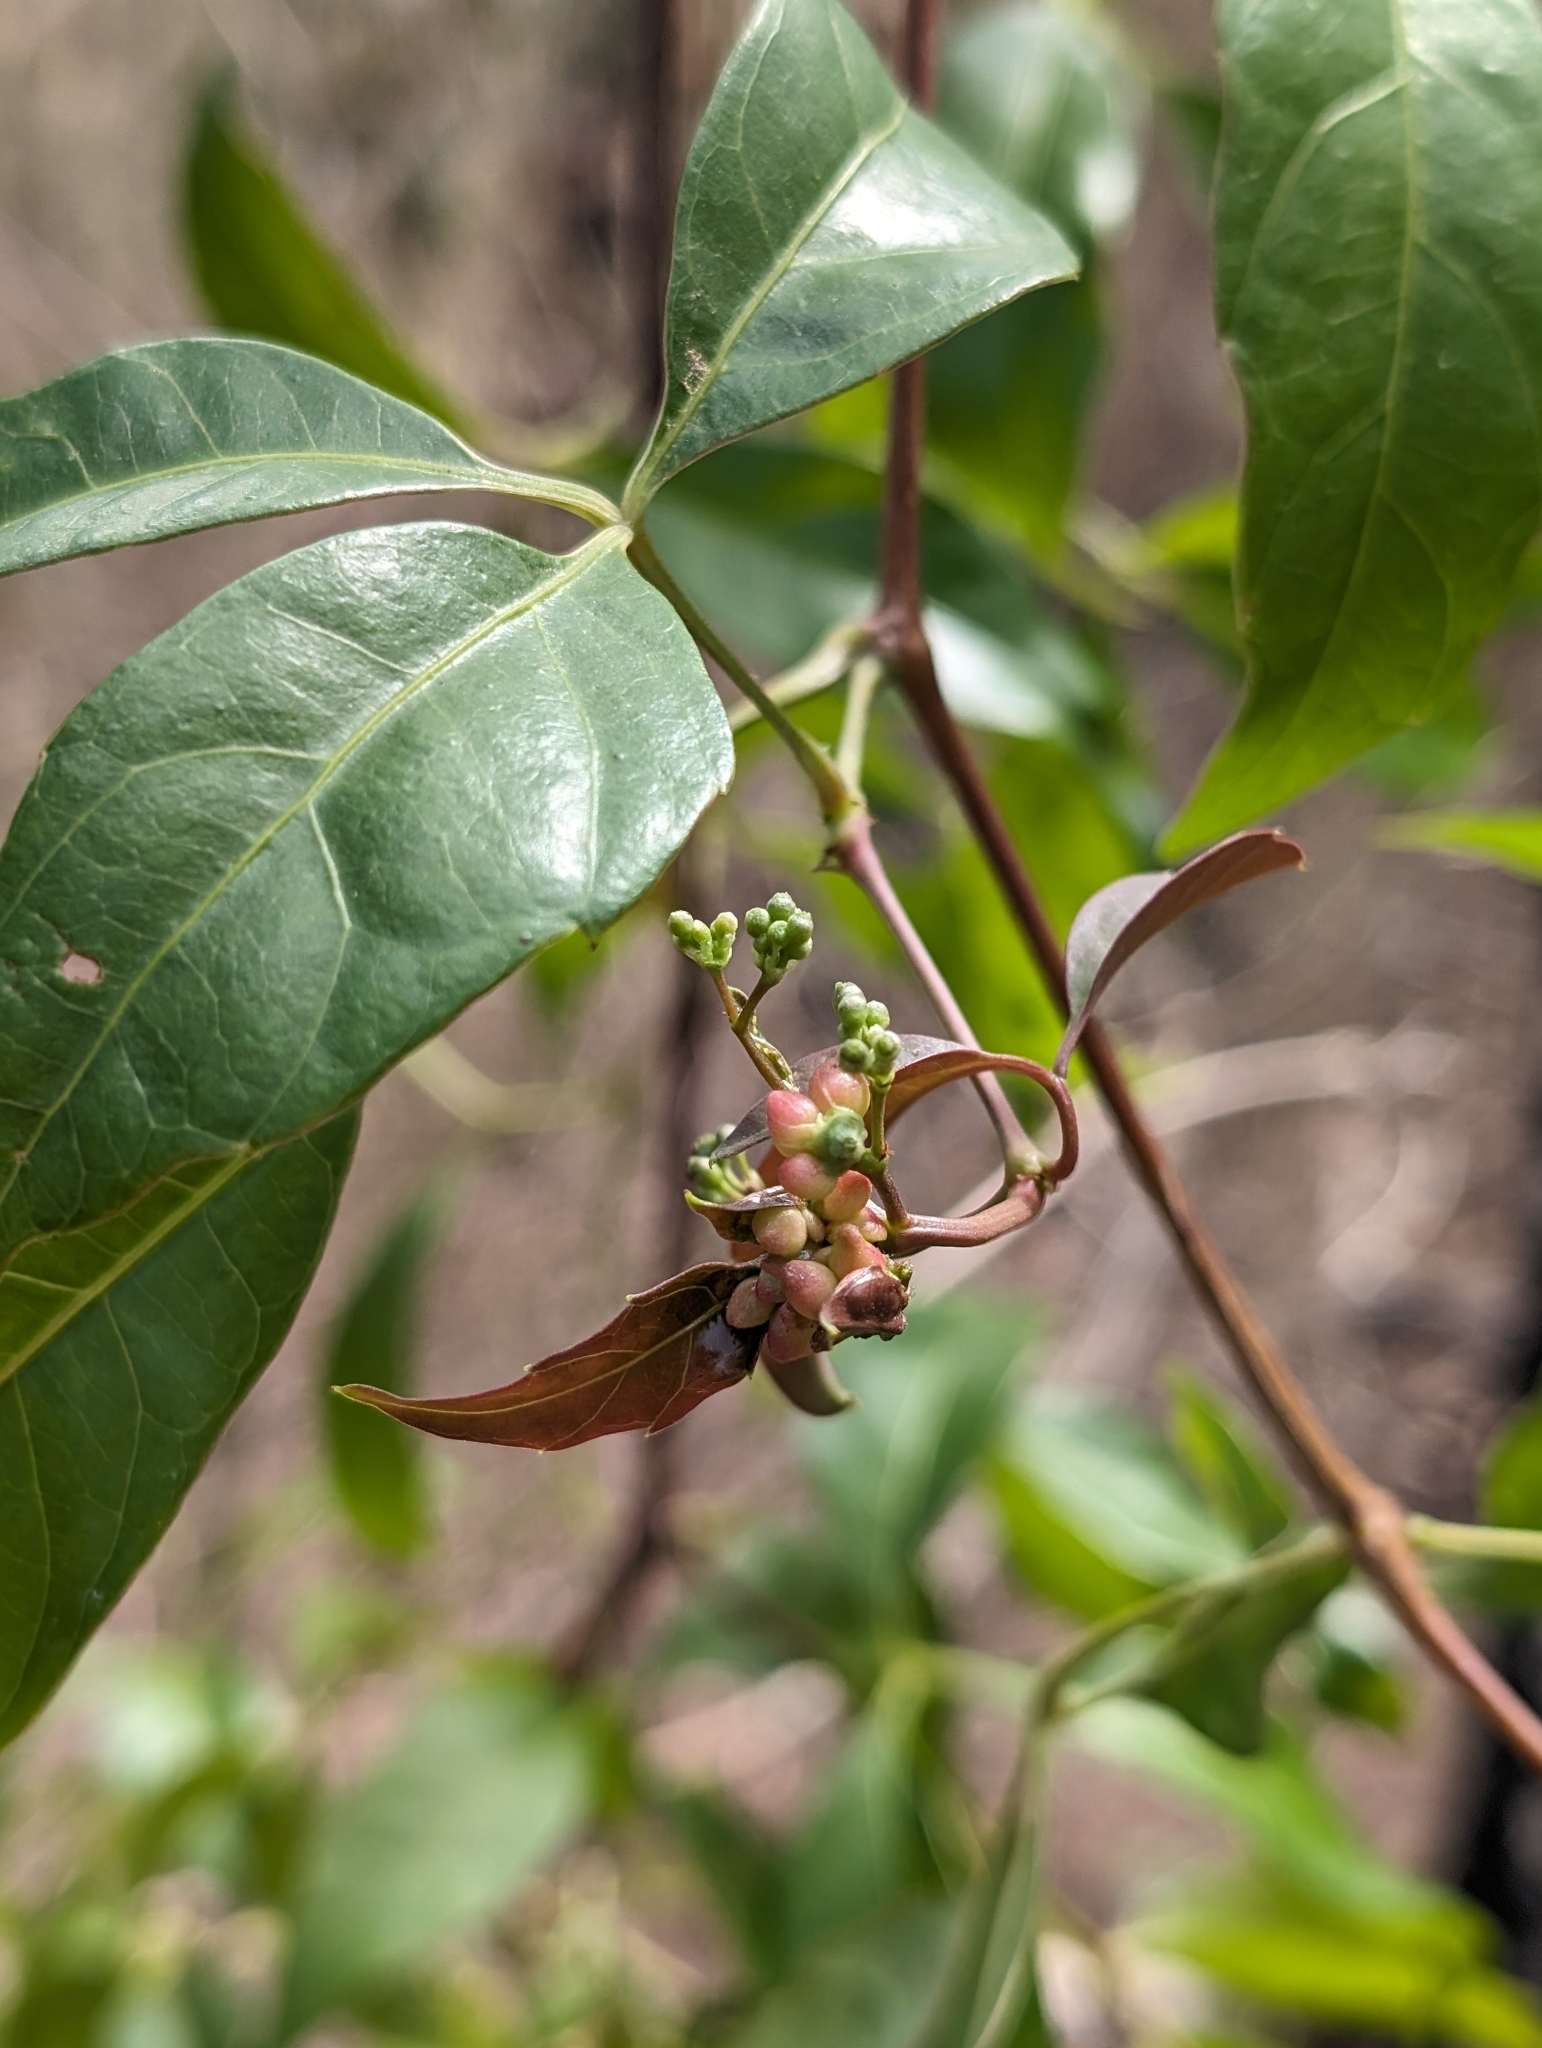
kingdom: Plantae
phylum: Tracheophyta
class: Magnoliopsida
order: Vitales
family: Vitaceae
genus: Tetrastigma
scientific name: Tetrastigma nitens
